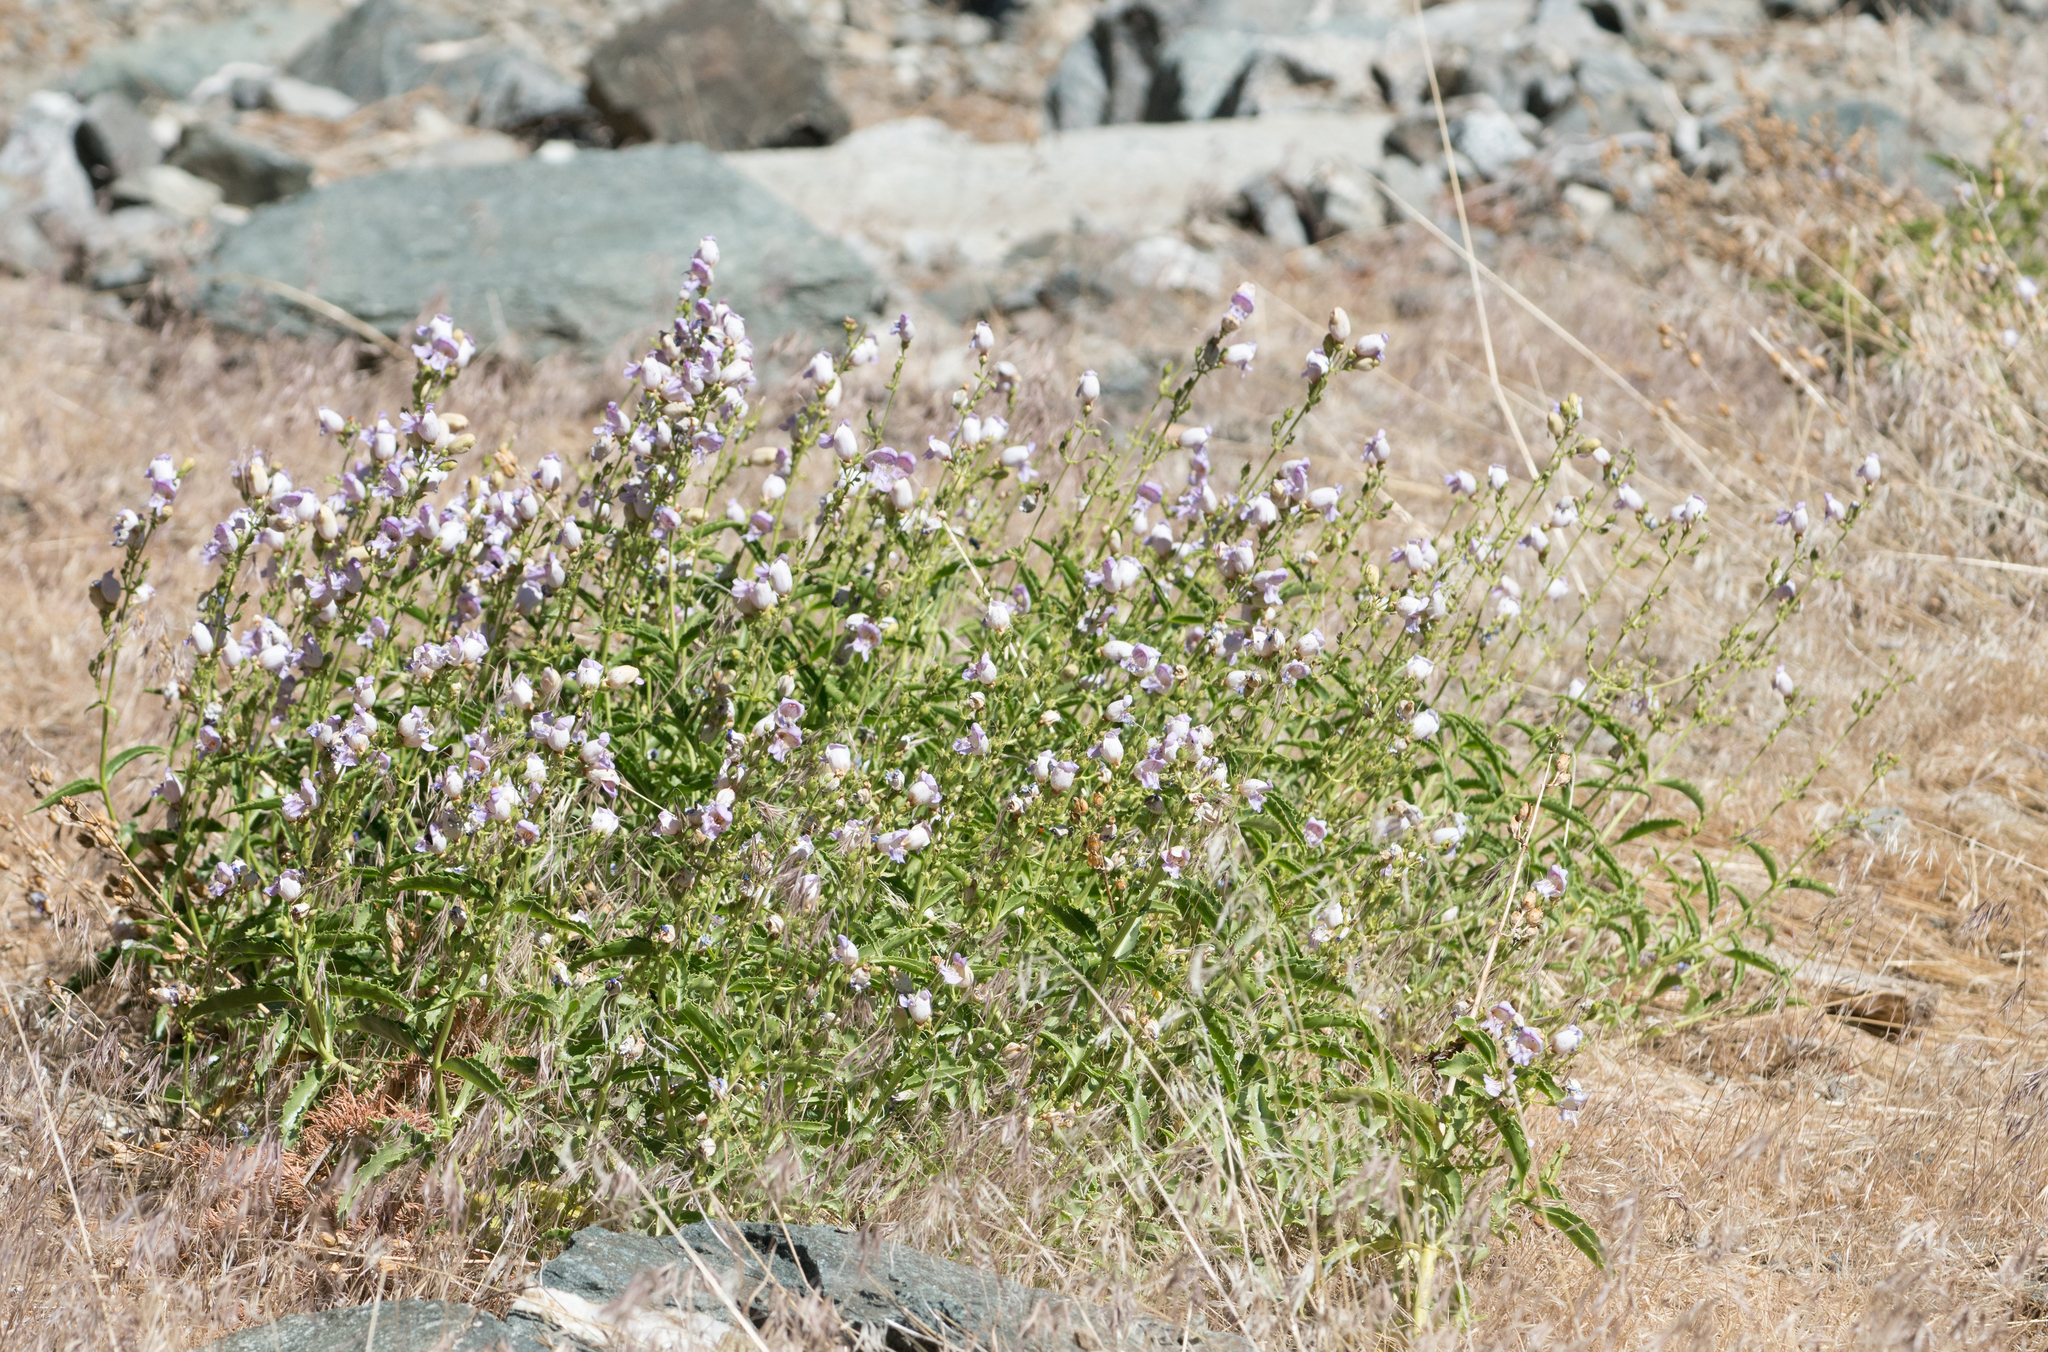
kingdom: Plantae
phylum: Tracheophyta
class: Magnoliopsida
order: Lamiales
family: Plantaginaceae
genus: Penstemon
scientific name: Penstemon grinnellii
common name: Grinnell's beardtongue
